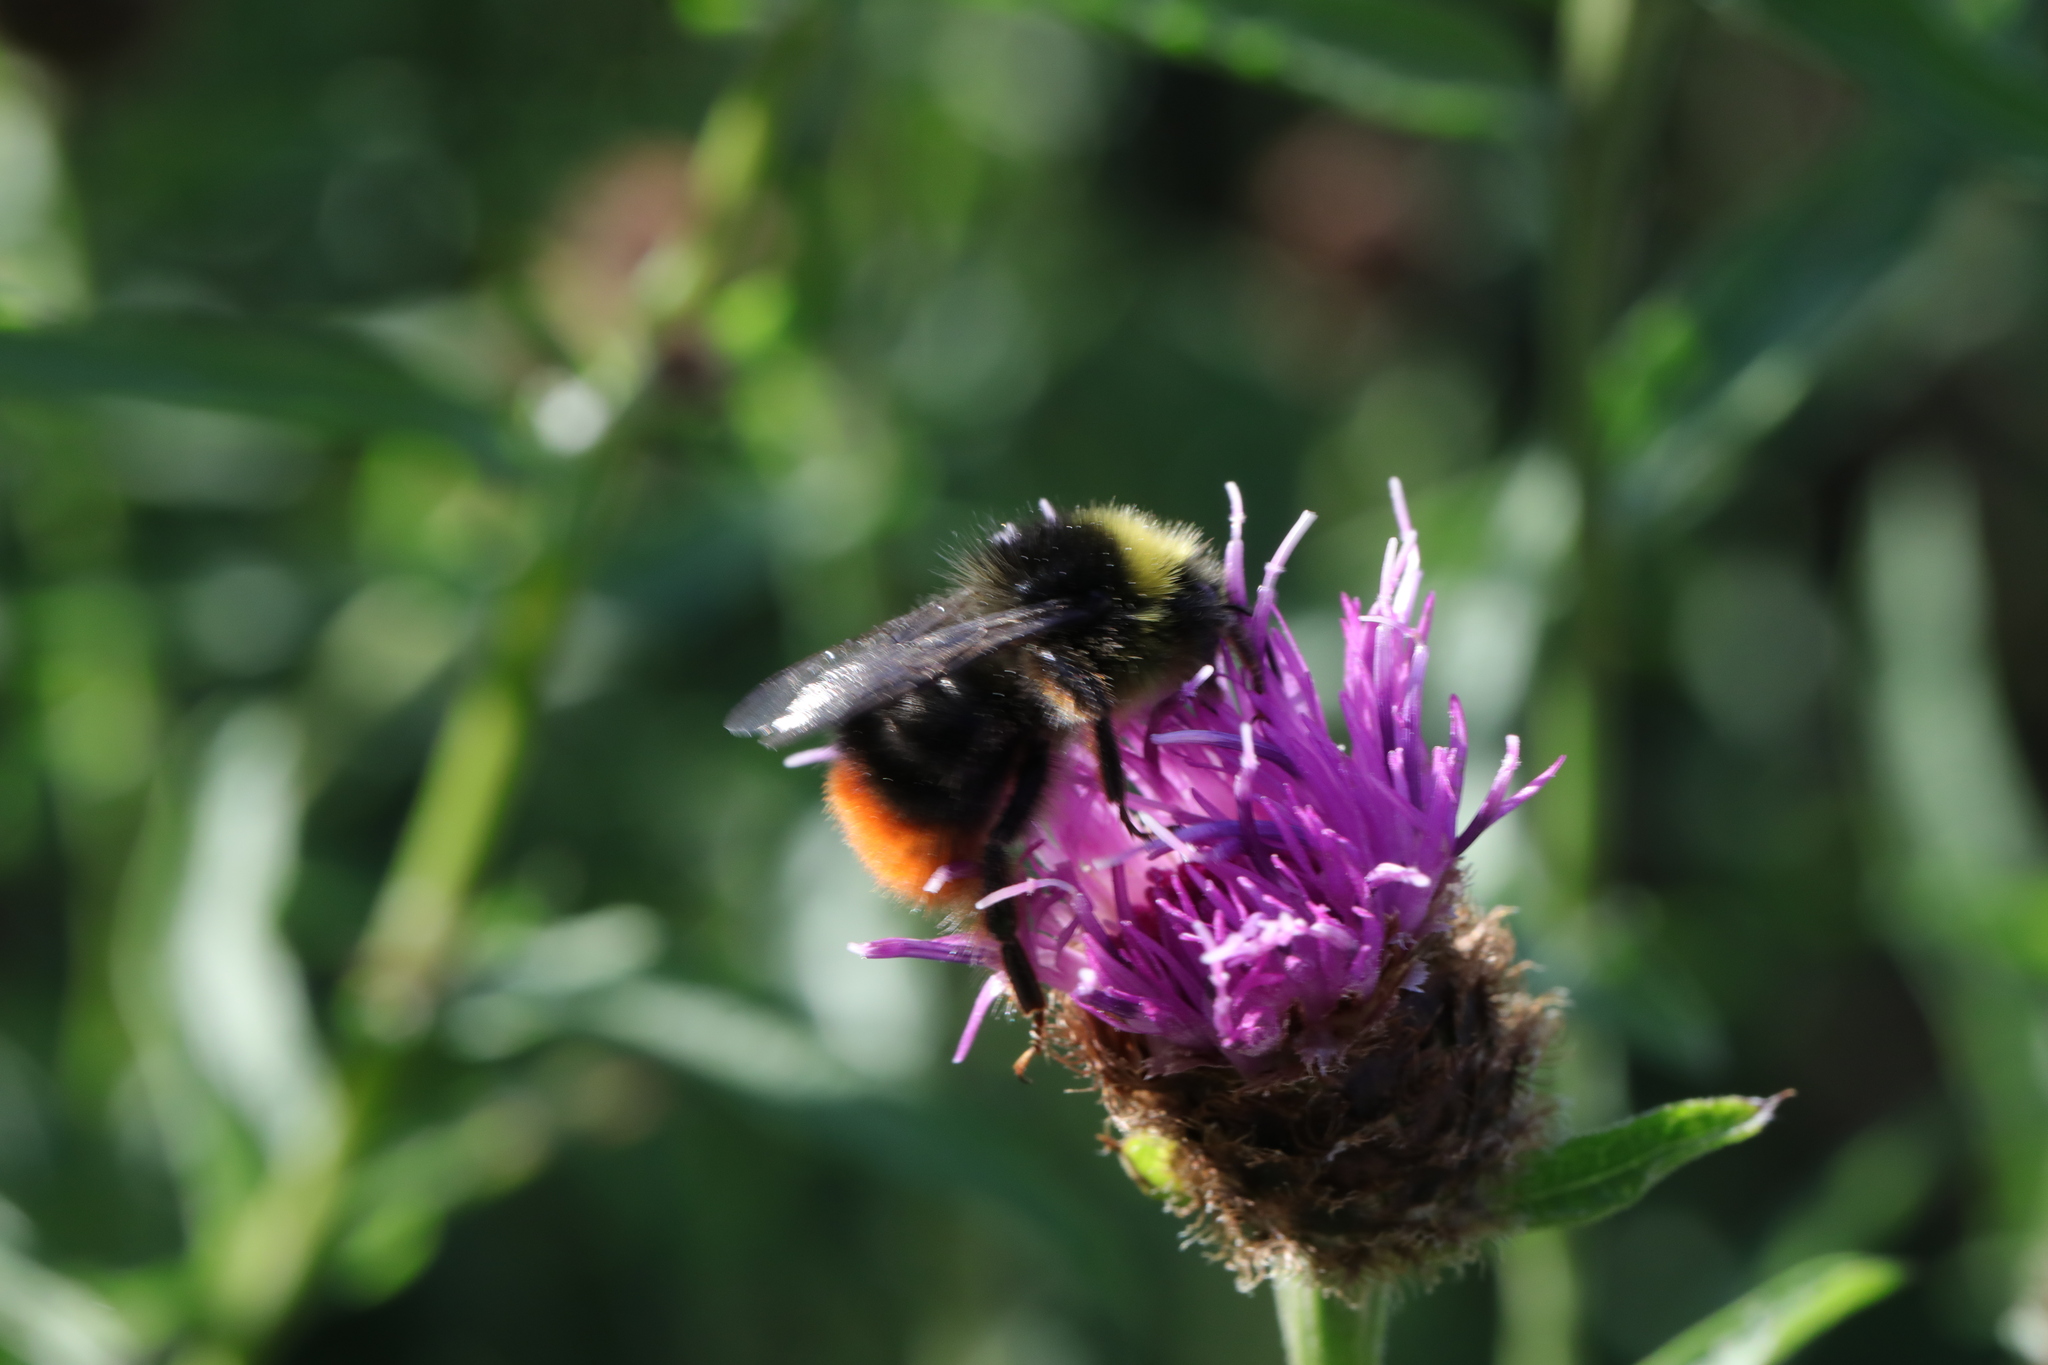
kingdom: Animalia
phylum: Arthropoda
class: Insecta
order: Hymenoptera
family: Apidae
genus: Bombus
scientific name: Bombus lapidarius
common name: Large red-tailed humble-bee
